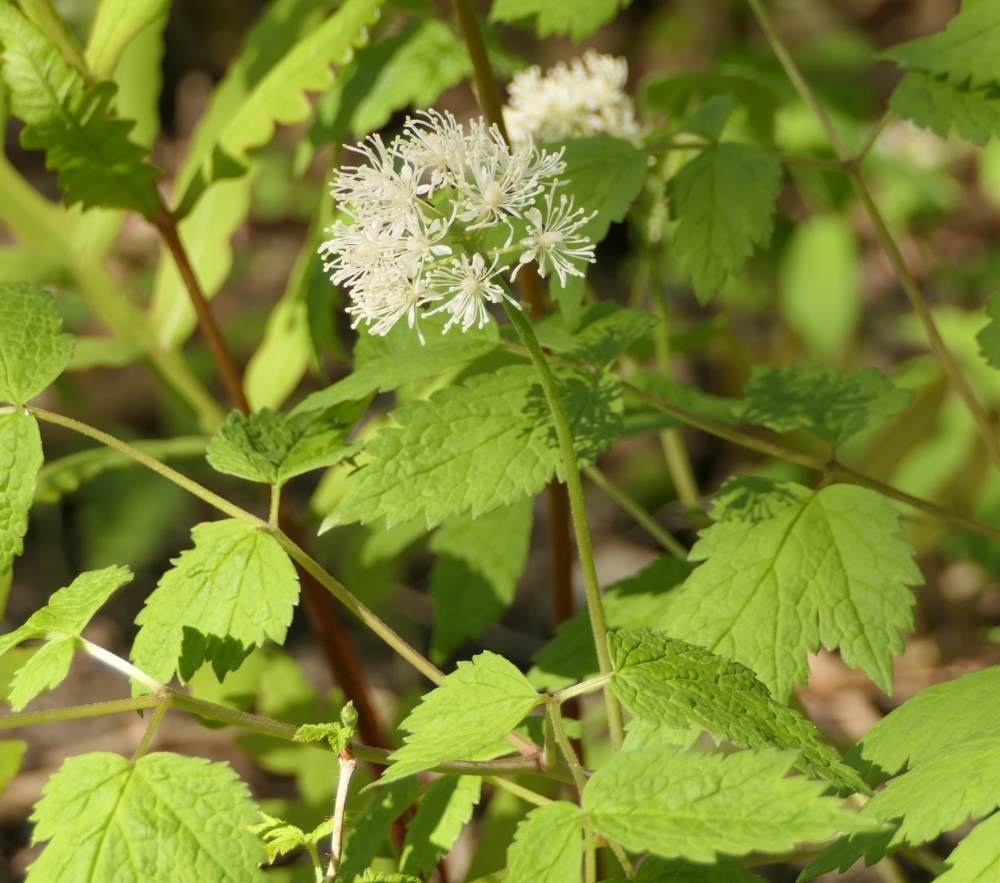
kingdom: Plantae
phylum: Tracheophyta
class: Magnoliopsida
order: Ranunculales
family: Ranunculaceae
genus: Actaea
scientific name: Actaea rubra
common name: Red baneberry
